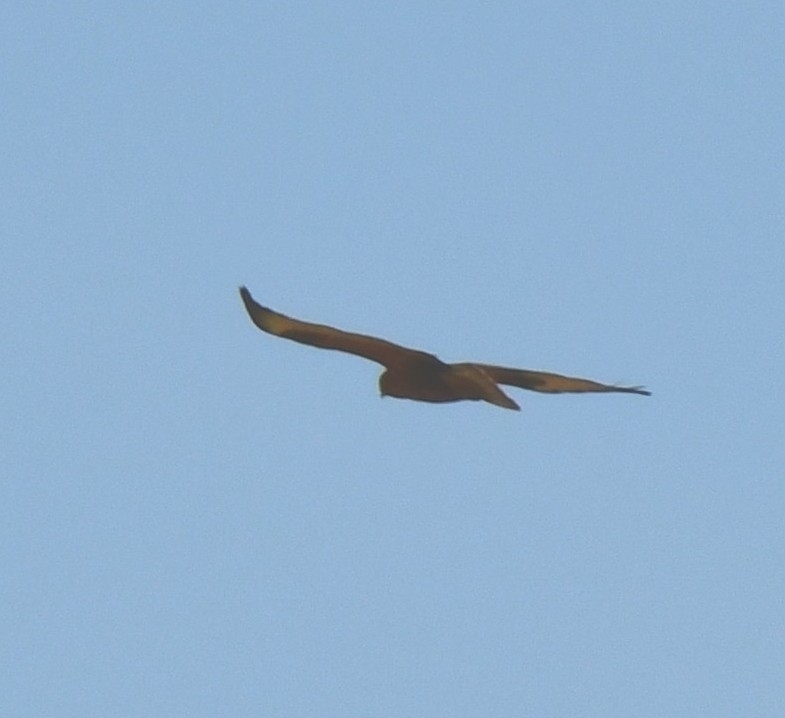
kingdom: Animalia
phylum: Chordata
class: Aves
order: Accipitriformes
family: Accipitridae
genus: Buteo
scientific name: Buteo buteo
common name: Common buzzard
